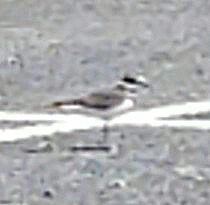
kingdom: Animalia
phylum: Chordata
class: Aves
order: Charadriiformes
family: Charadriidae
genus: Charadrius
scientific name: Charadrius vociferus
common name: Killdeer
